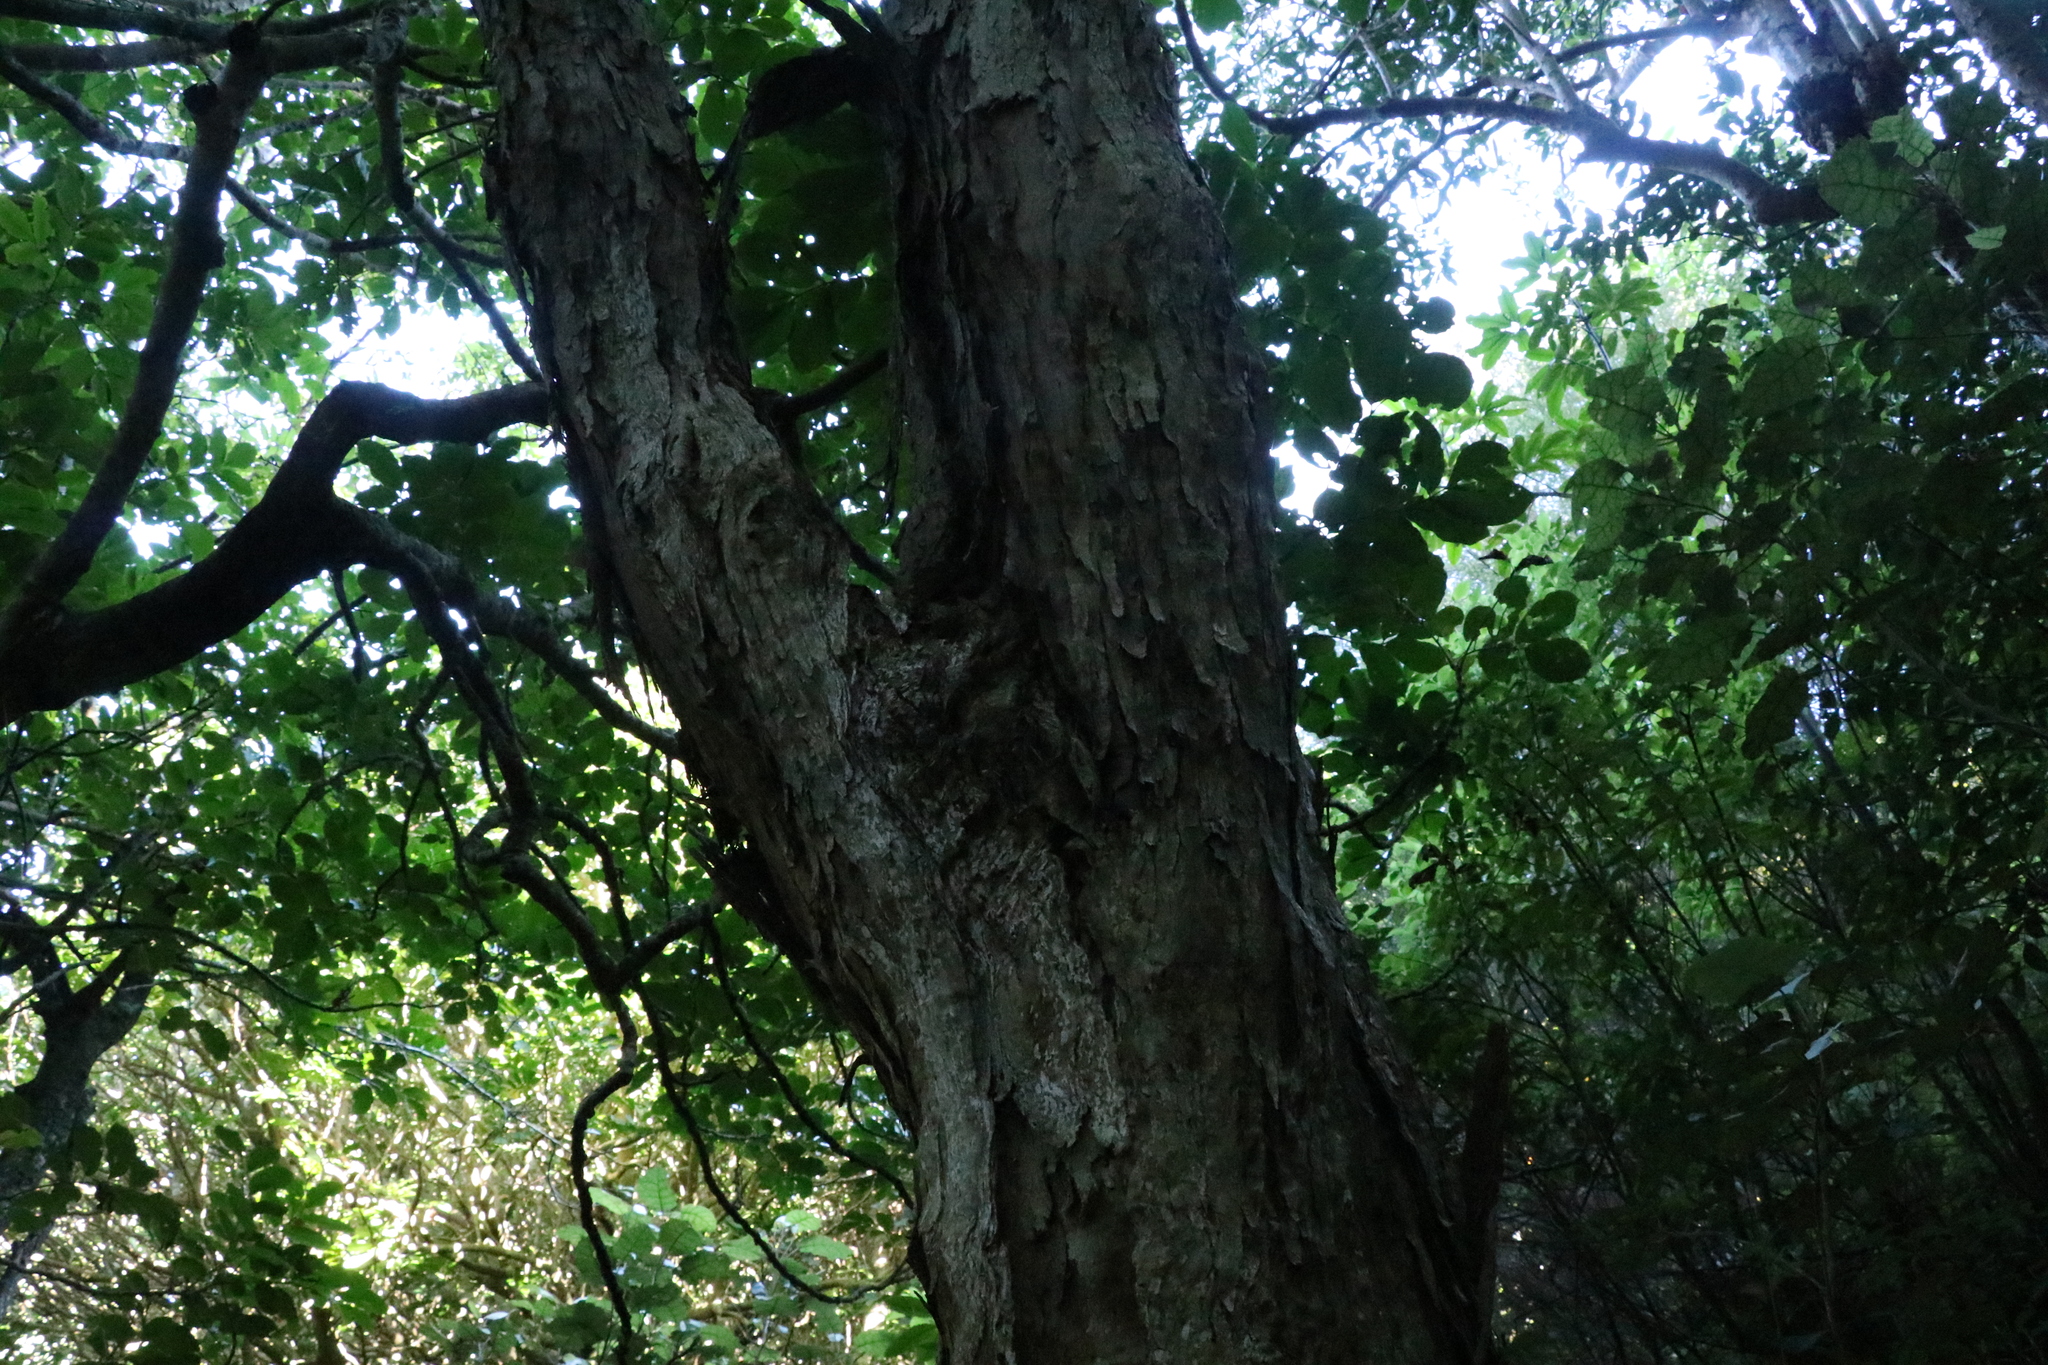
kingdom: Plantae
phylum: Tracheophyta
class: Magnoliopsida
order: Myrtales
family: Myrtaceae
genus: Kunzea
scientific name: Kunzea robusta
